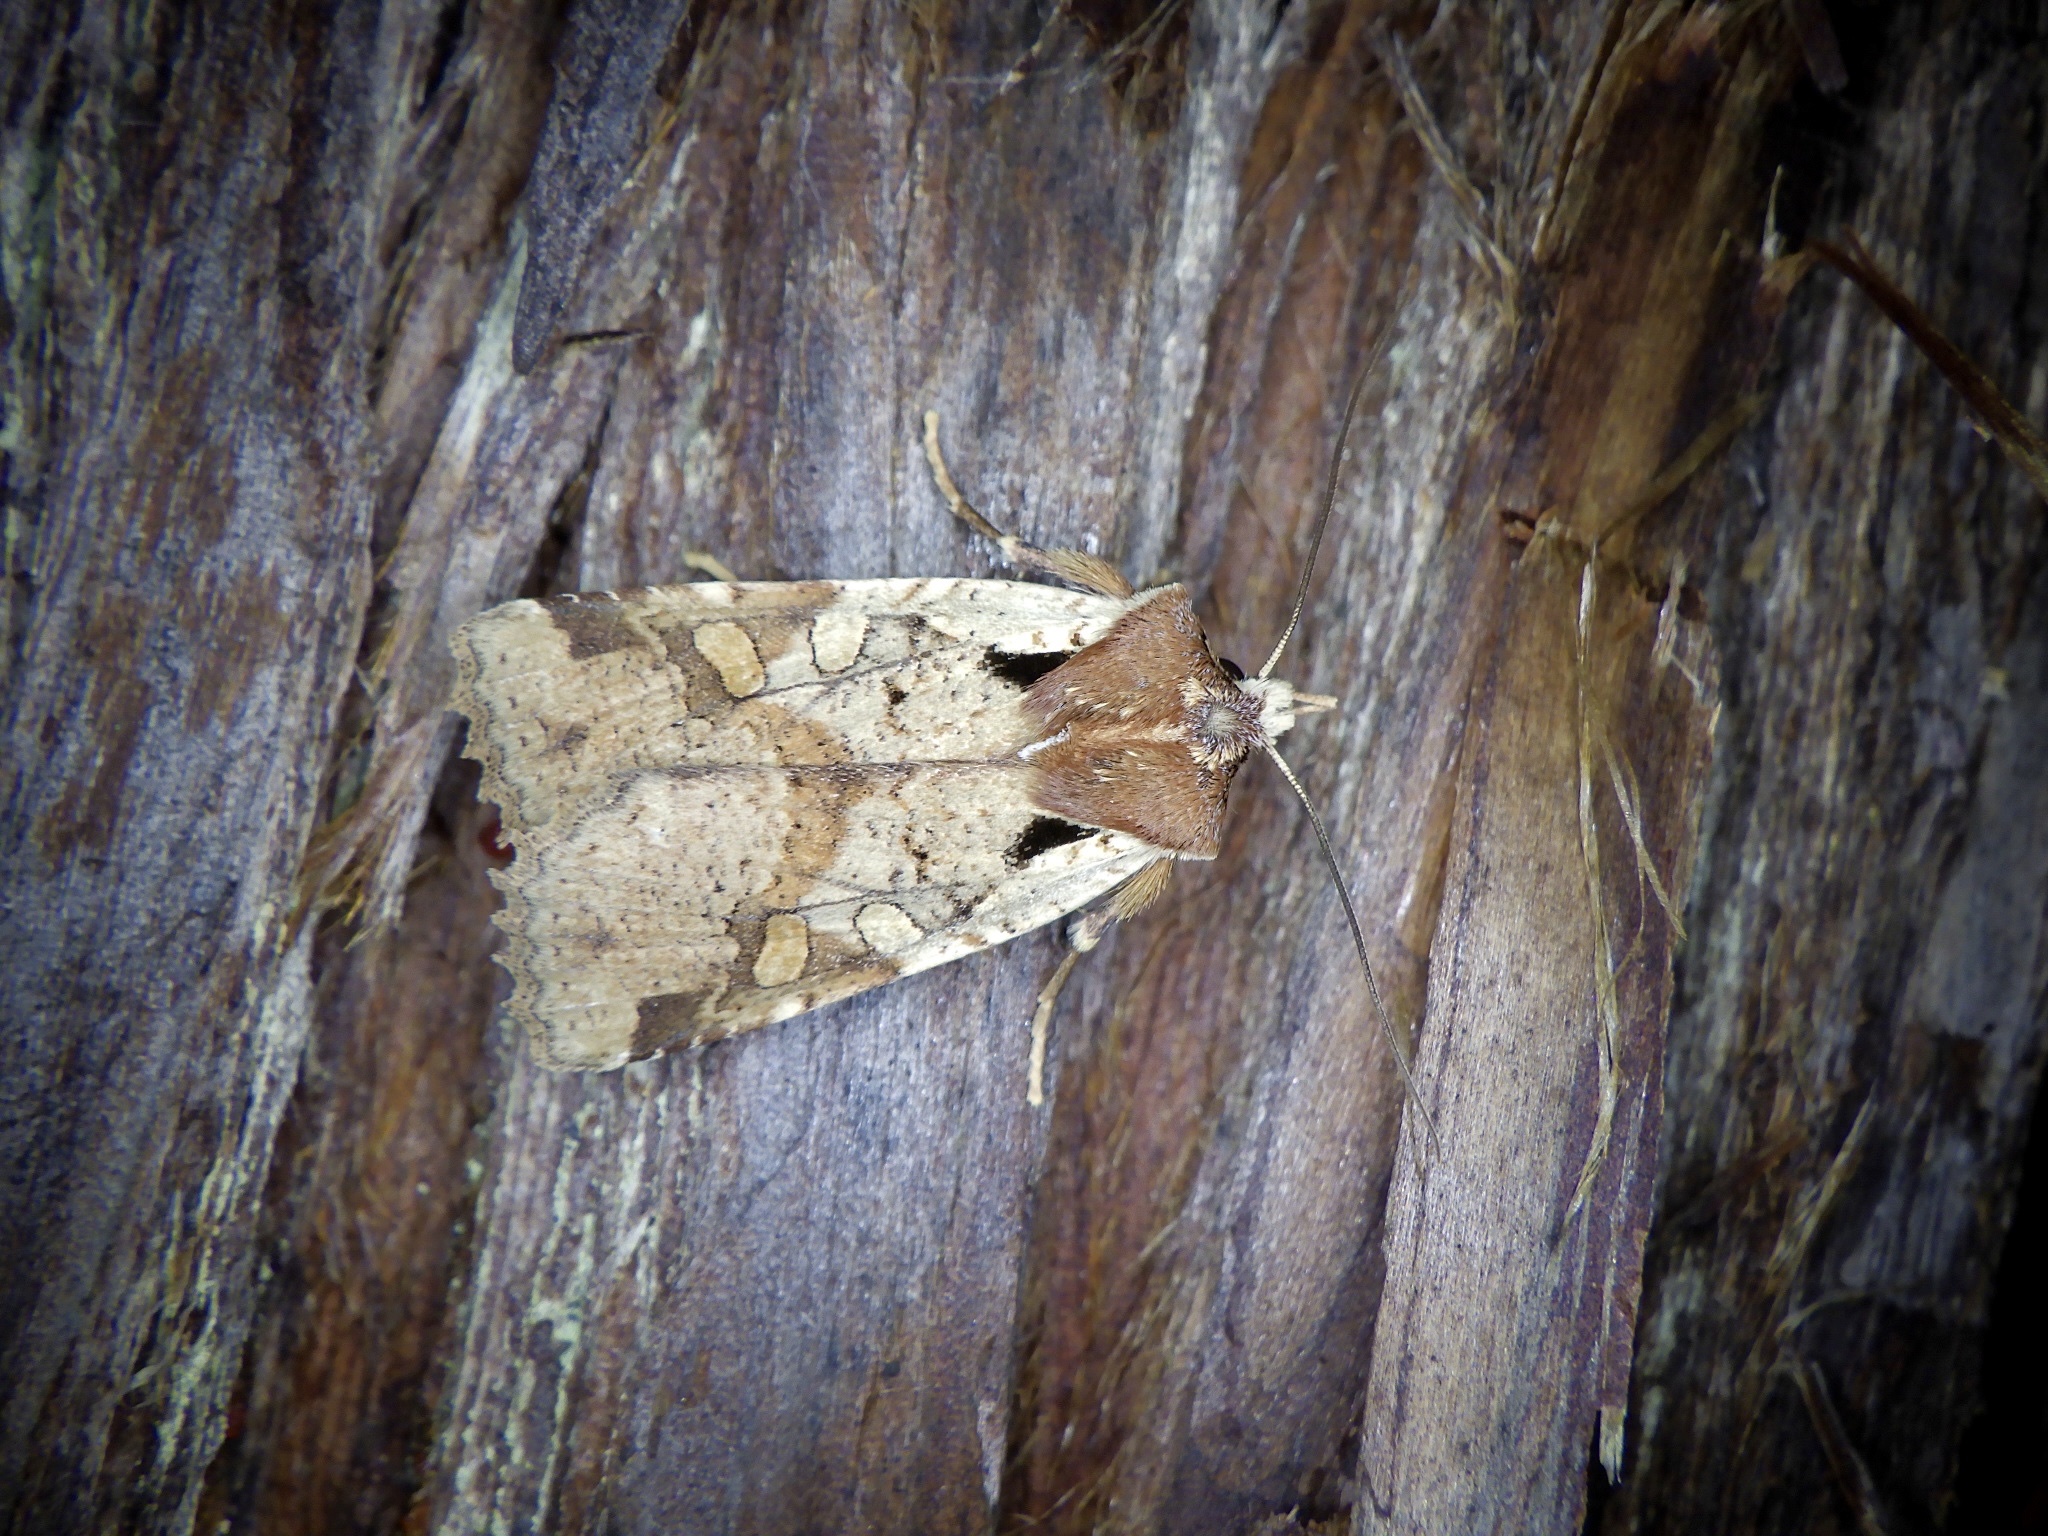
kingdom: Animalia
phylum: Arthropoda
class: Insecta
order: Lepidoptera
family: Noctuidae
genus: Rhynchaglaea
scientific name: Rhynchaglaea scitula
